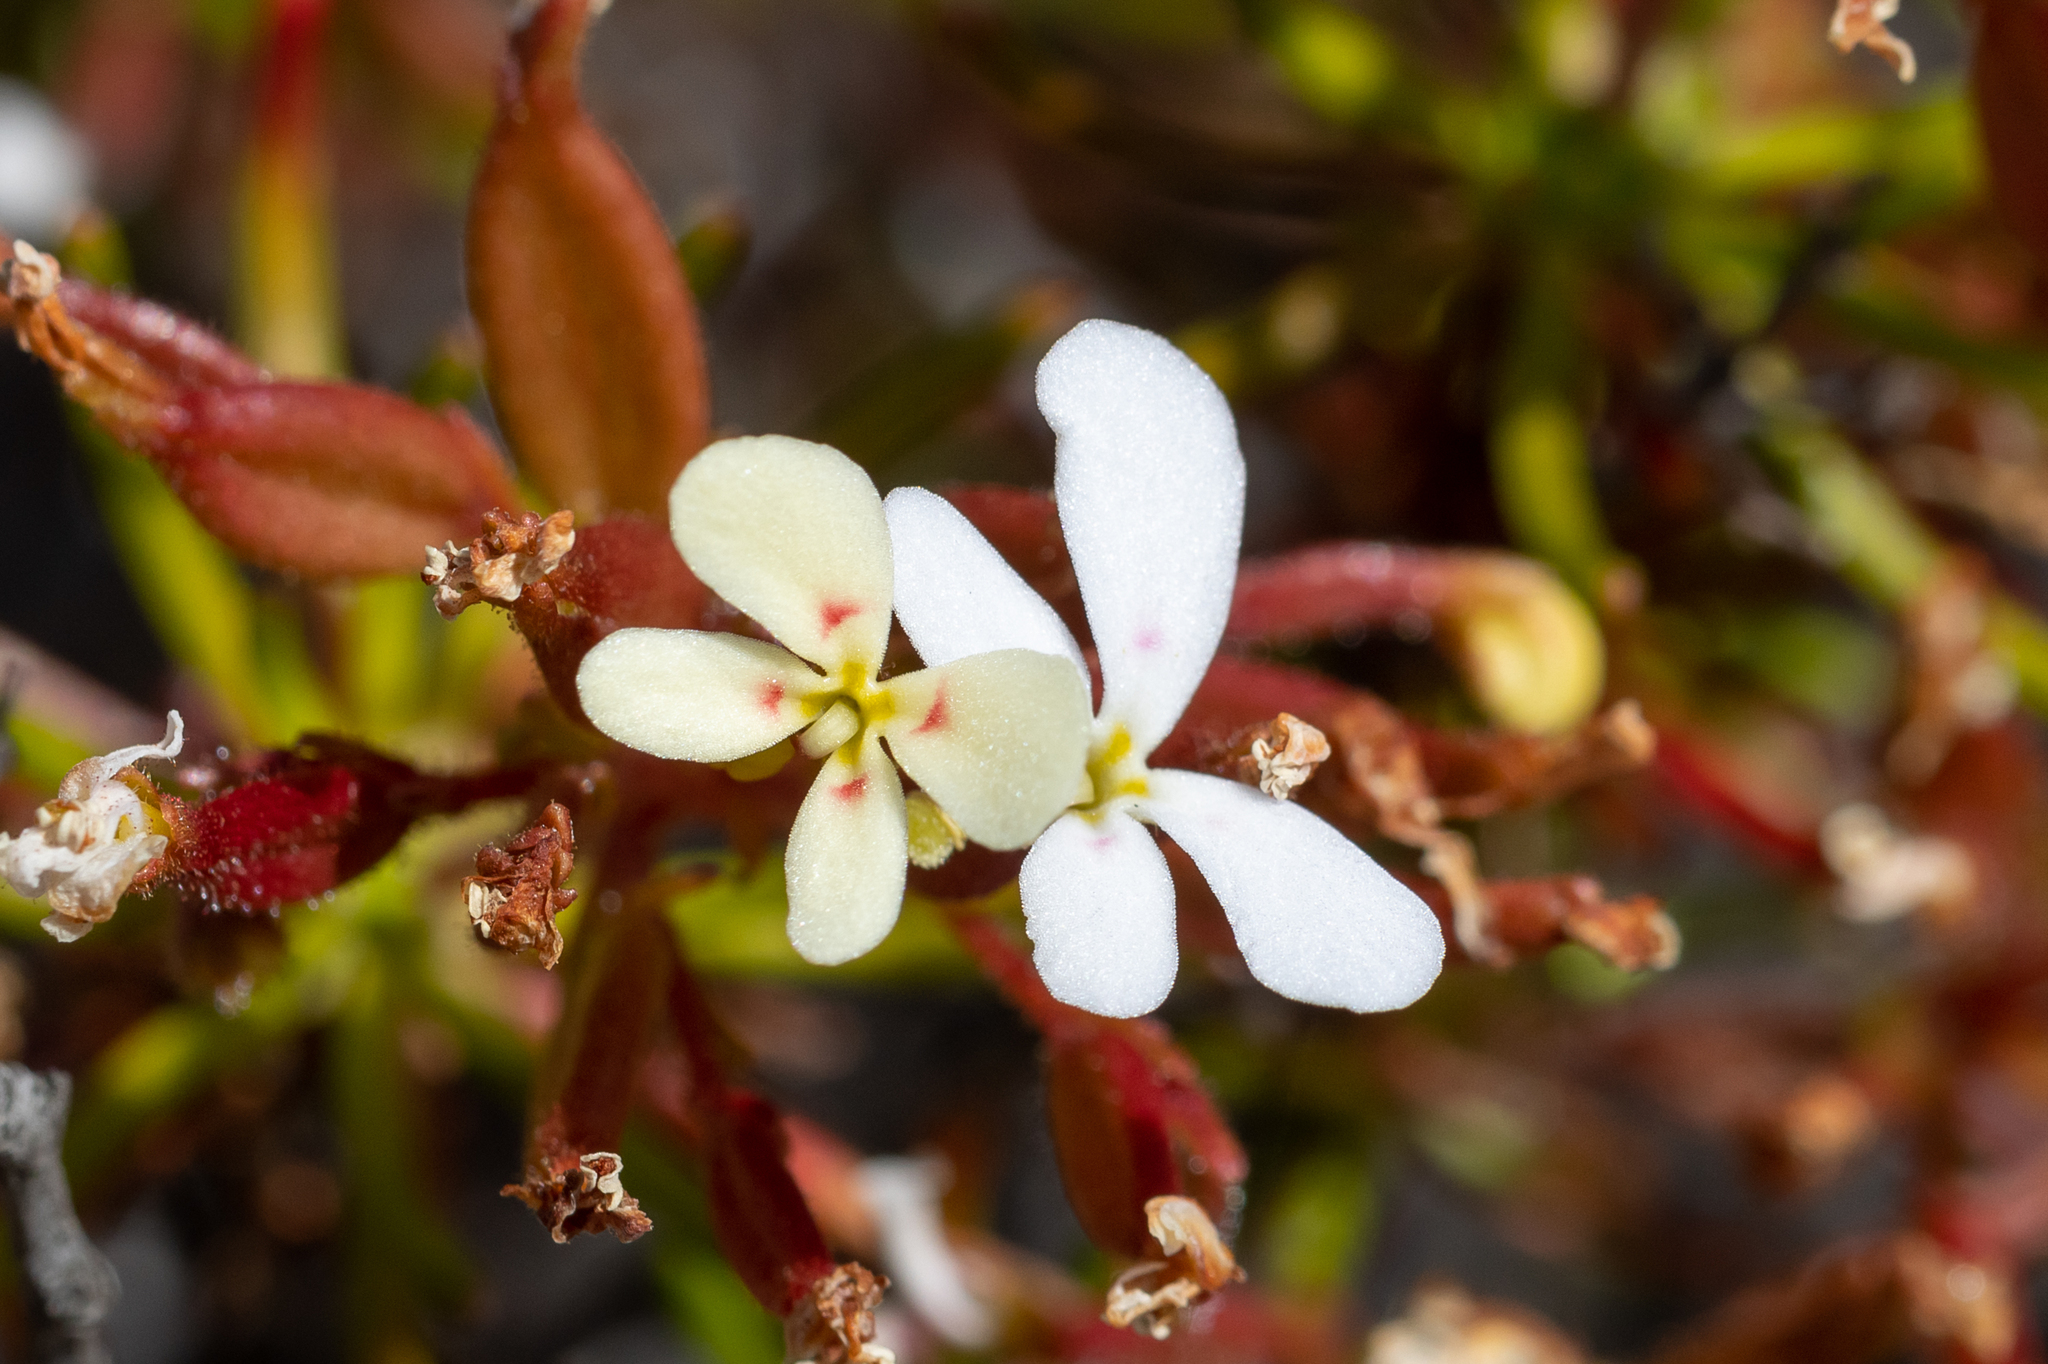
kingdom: Plantae
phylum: Tracheophyta
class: Magnoliopsida
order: Asterales
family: Stylidiaceae
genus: Stylidium
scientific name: Stylidium breviscapum
